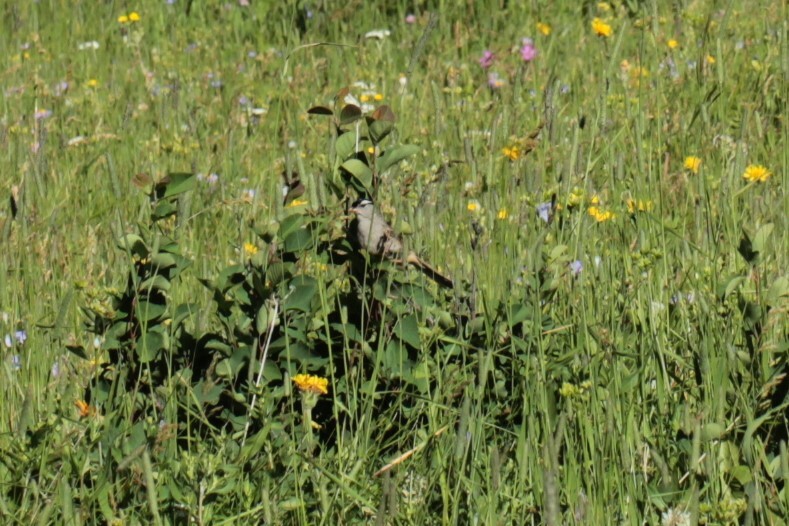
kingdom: Animalia
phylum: Chordata
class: Aves
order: Passeriformes
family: Passerellidae
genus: Zonotrichia
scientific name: Zonotrichia leucophrys
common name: White-crowned sparrow
